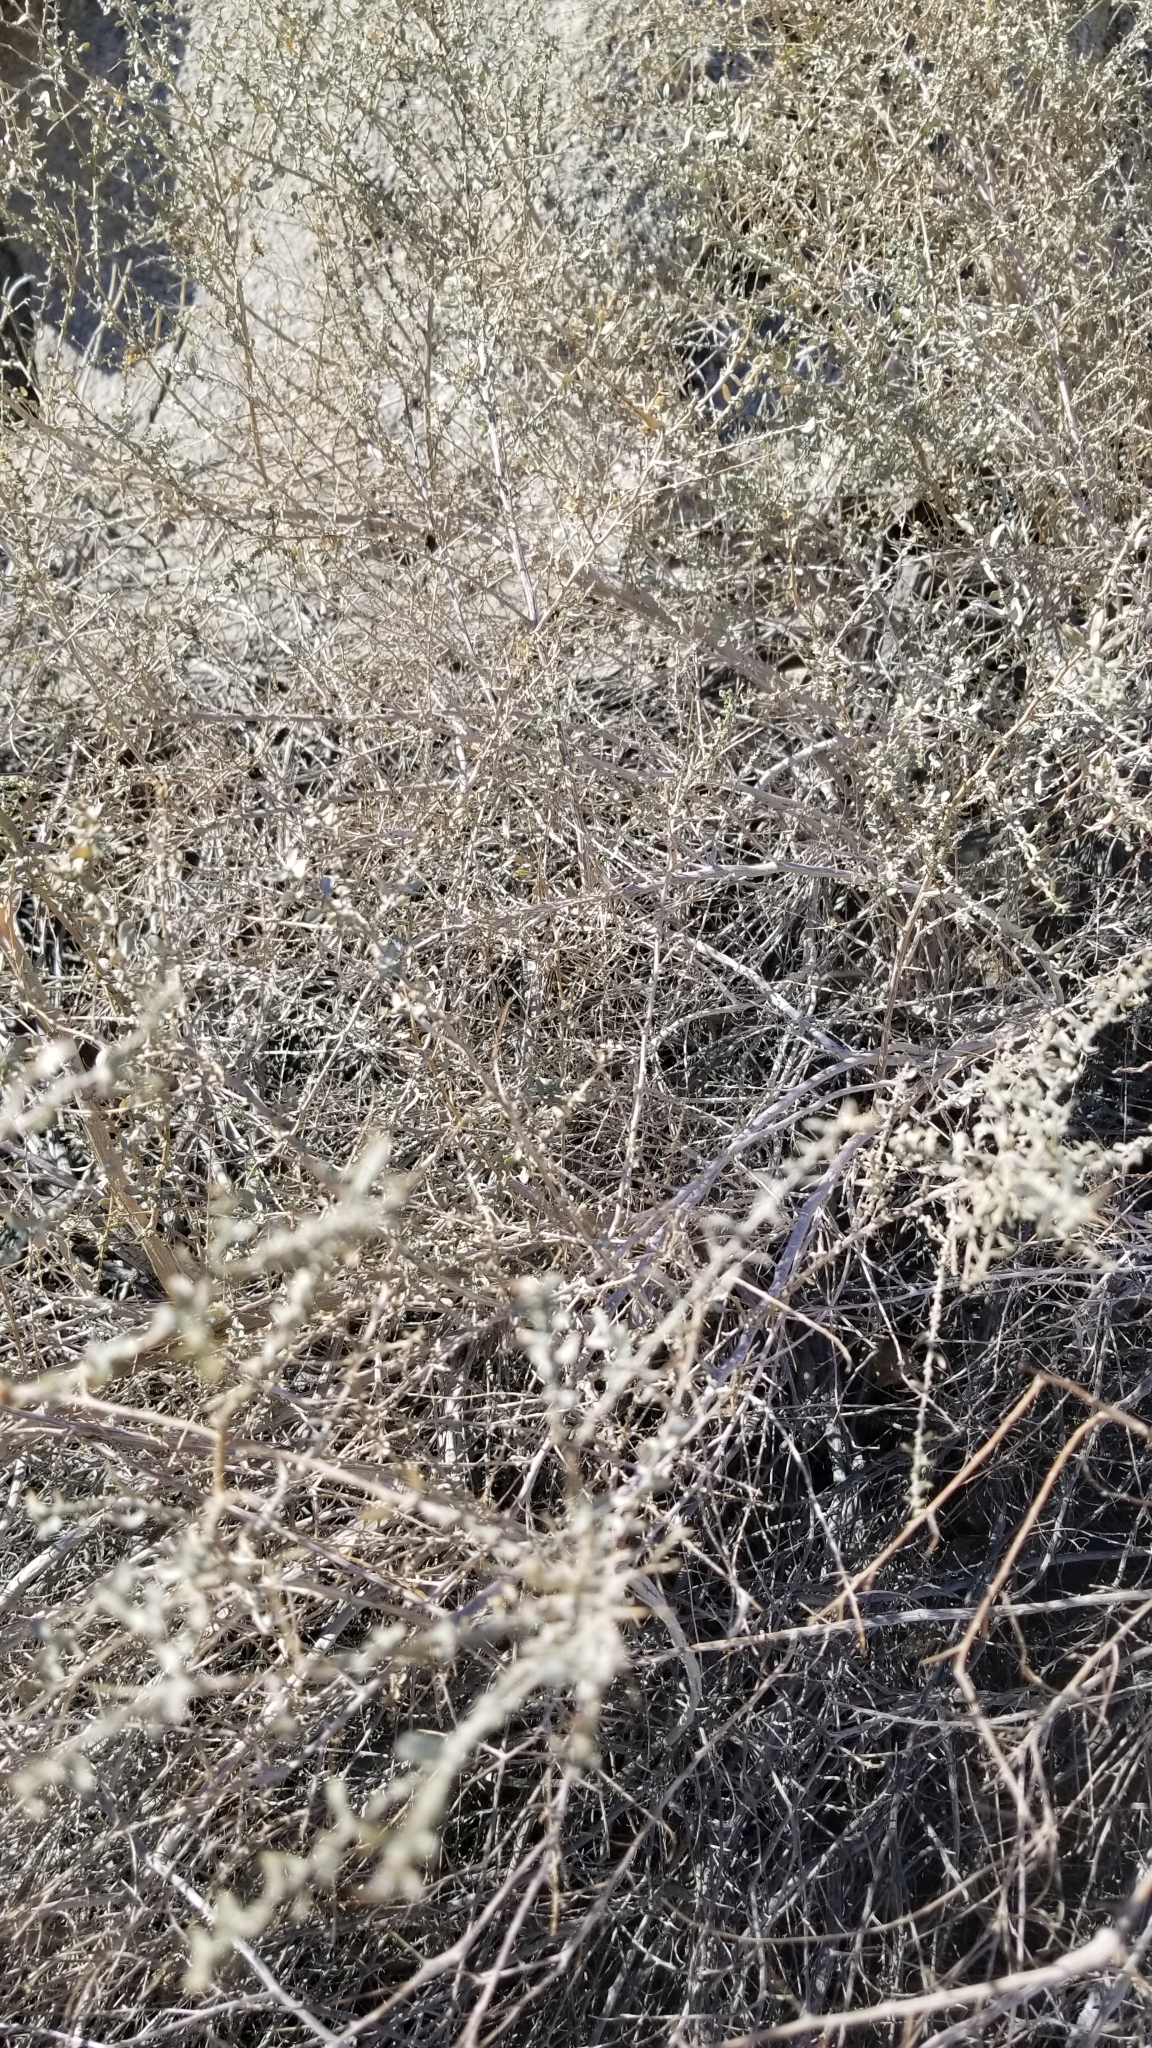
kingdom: Plantae
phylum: Tracheophyta
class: Magnoliopsida
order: Caryophyllales
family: Amaranthaceae
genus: Atriplex
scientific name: Atriplex polycarpa
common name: Desert saltbush
